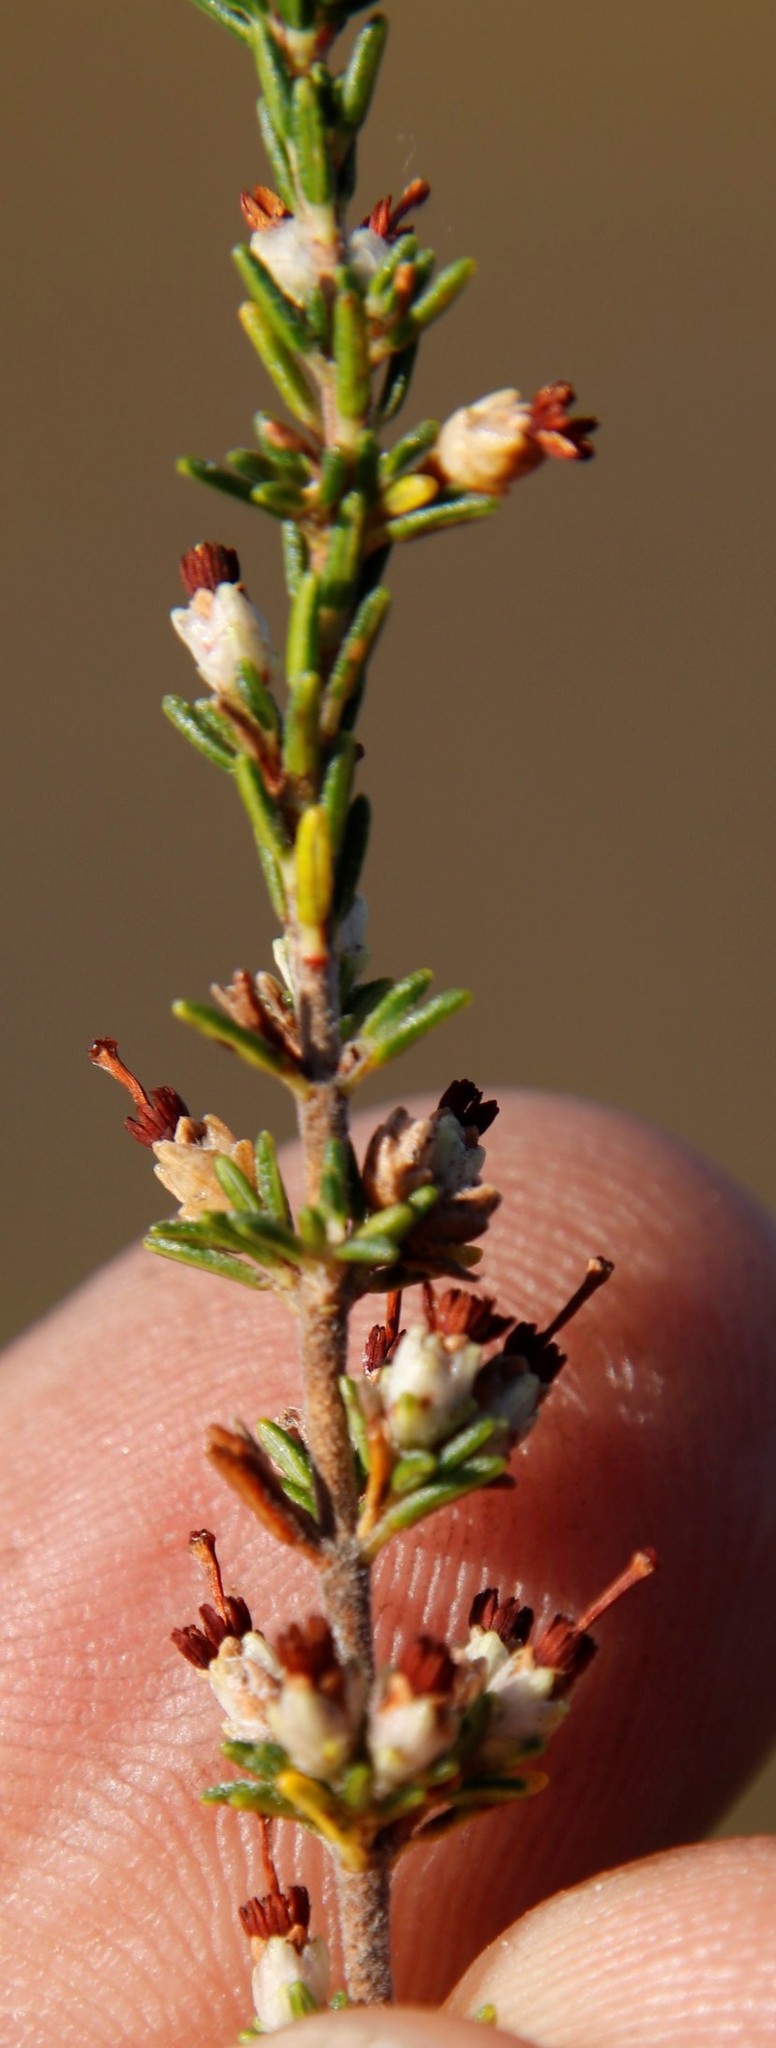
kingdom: Plantae
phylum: Tracheophyta
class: Magnoliopsida
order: Ericales
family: Ericaceae
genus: Erica
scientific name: Erica lasciva
